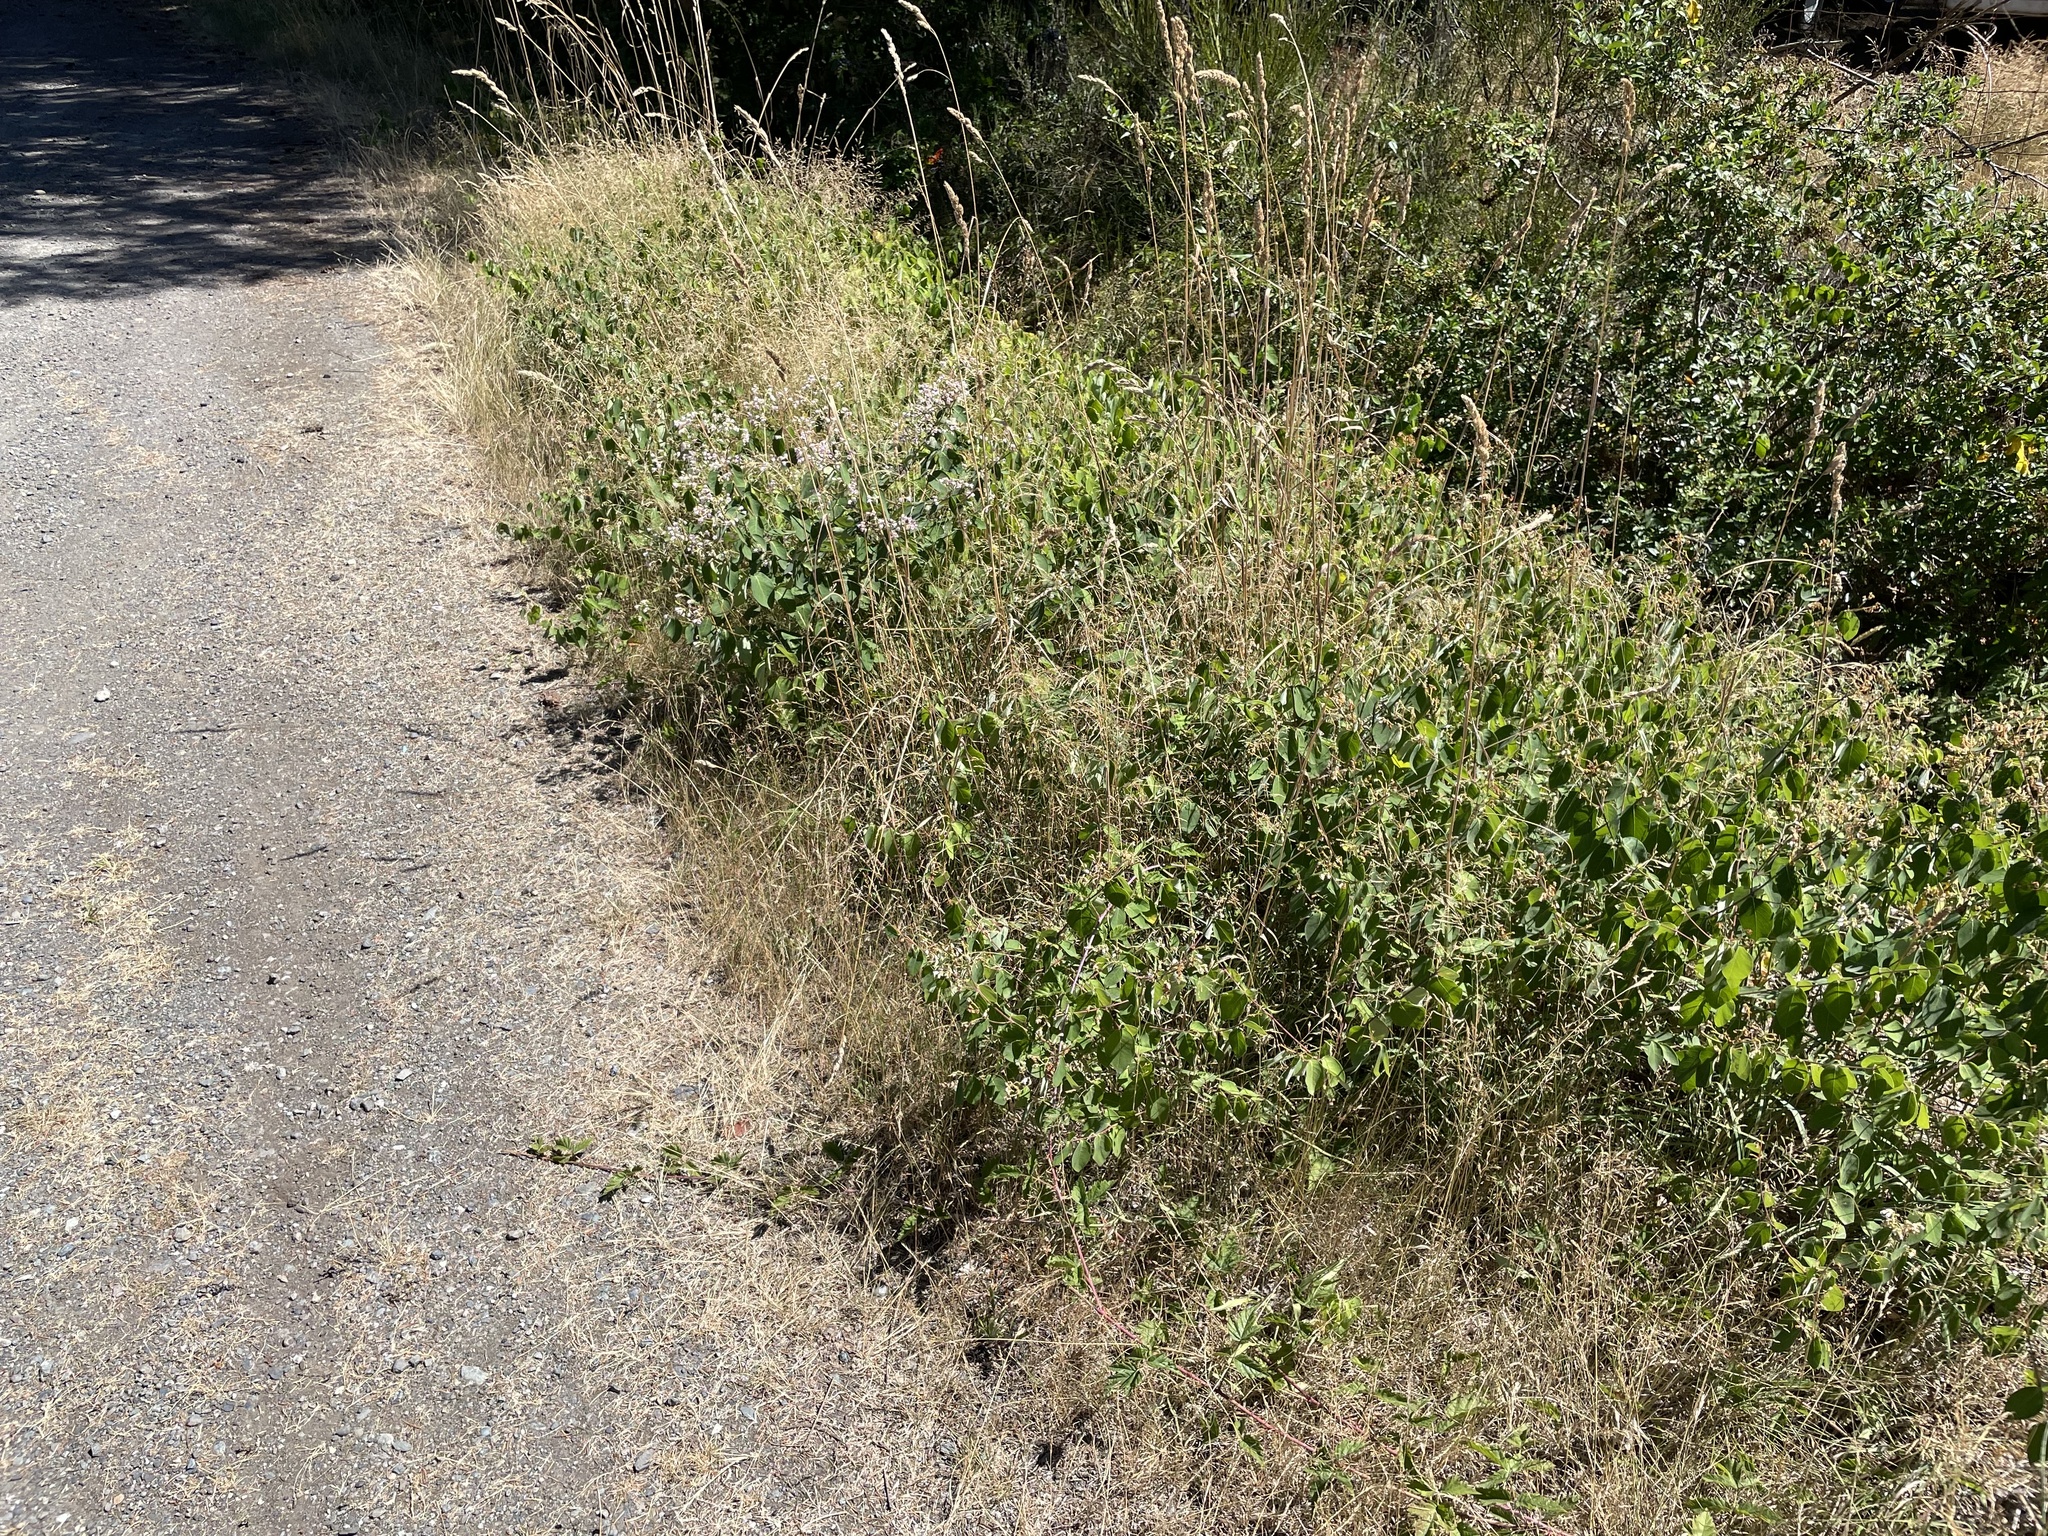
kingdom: Plantae
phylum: Tracheophyta
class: Magnoliopsida
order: Gentianales
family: Apocynaceae
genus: Apocynum
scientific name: Apocynum androsaemifolium
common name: Spreading dogbane
